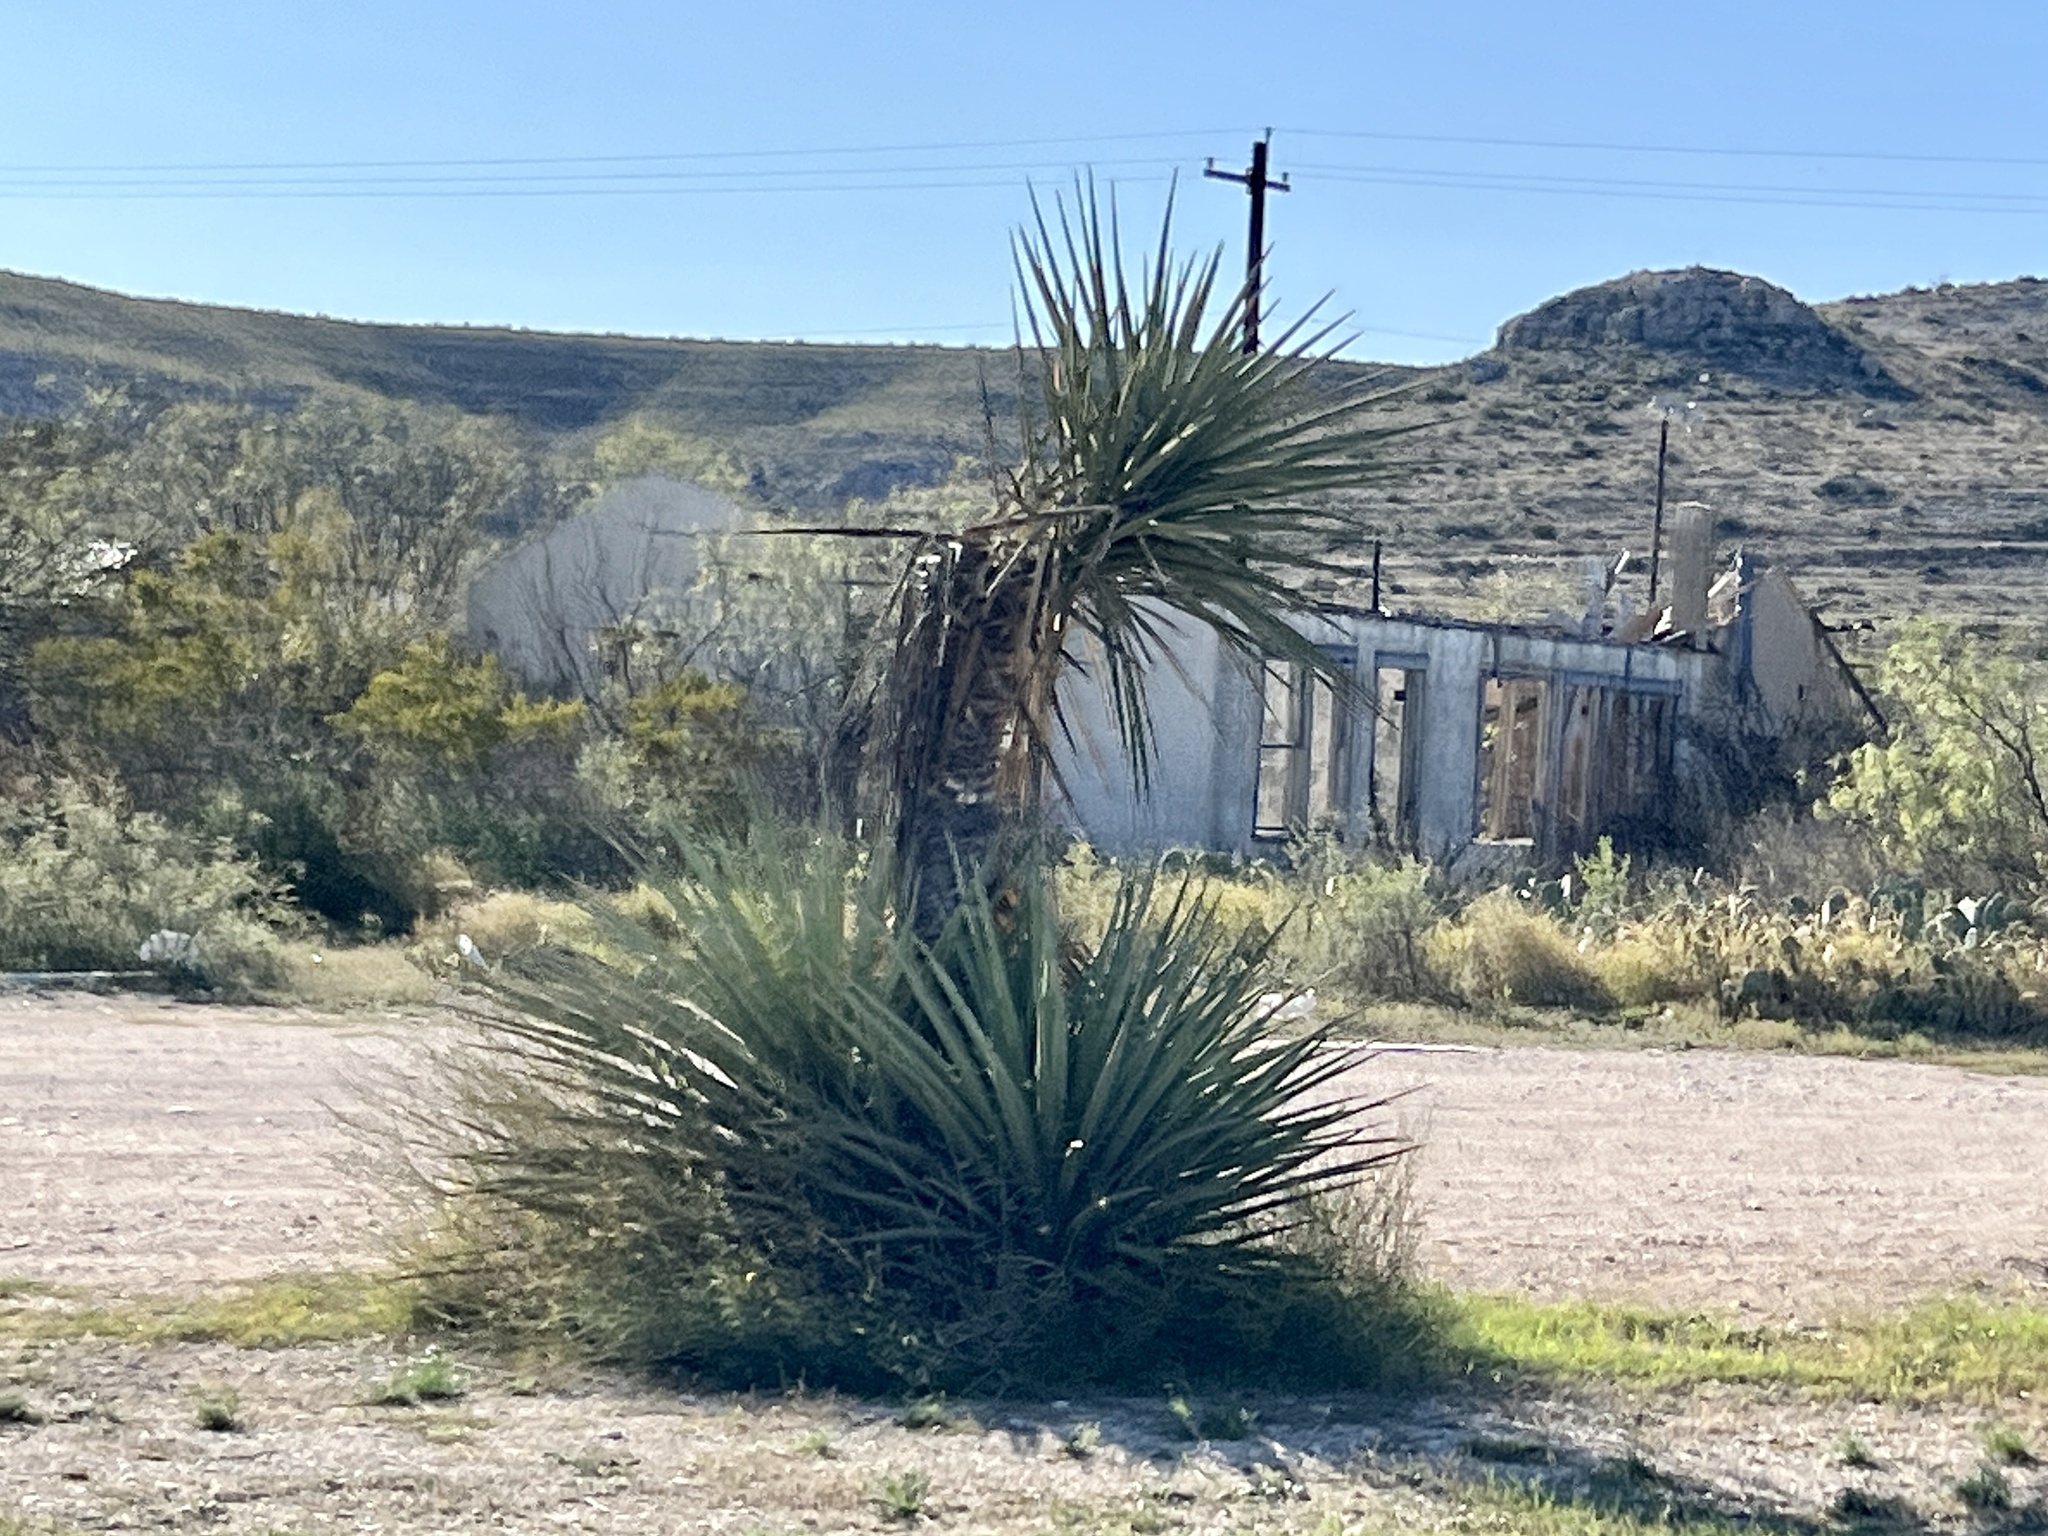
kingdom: Plantae
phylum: Tracheophyta
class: Liliopsida
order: Asparagales
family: Asparagaceae
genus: Yucca
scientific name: Yucca treculiana
